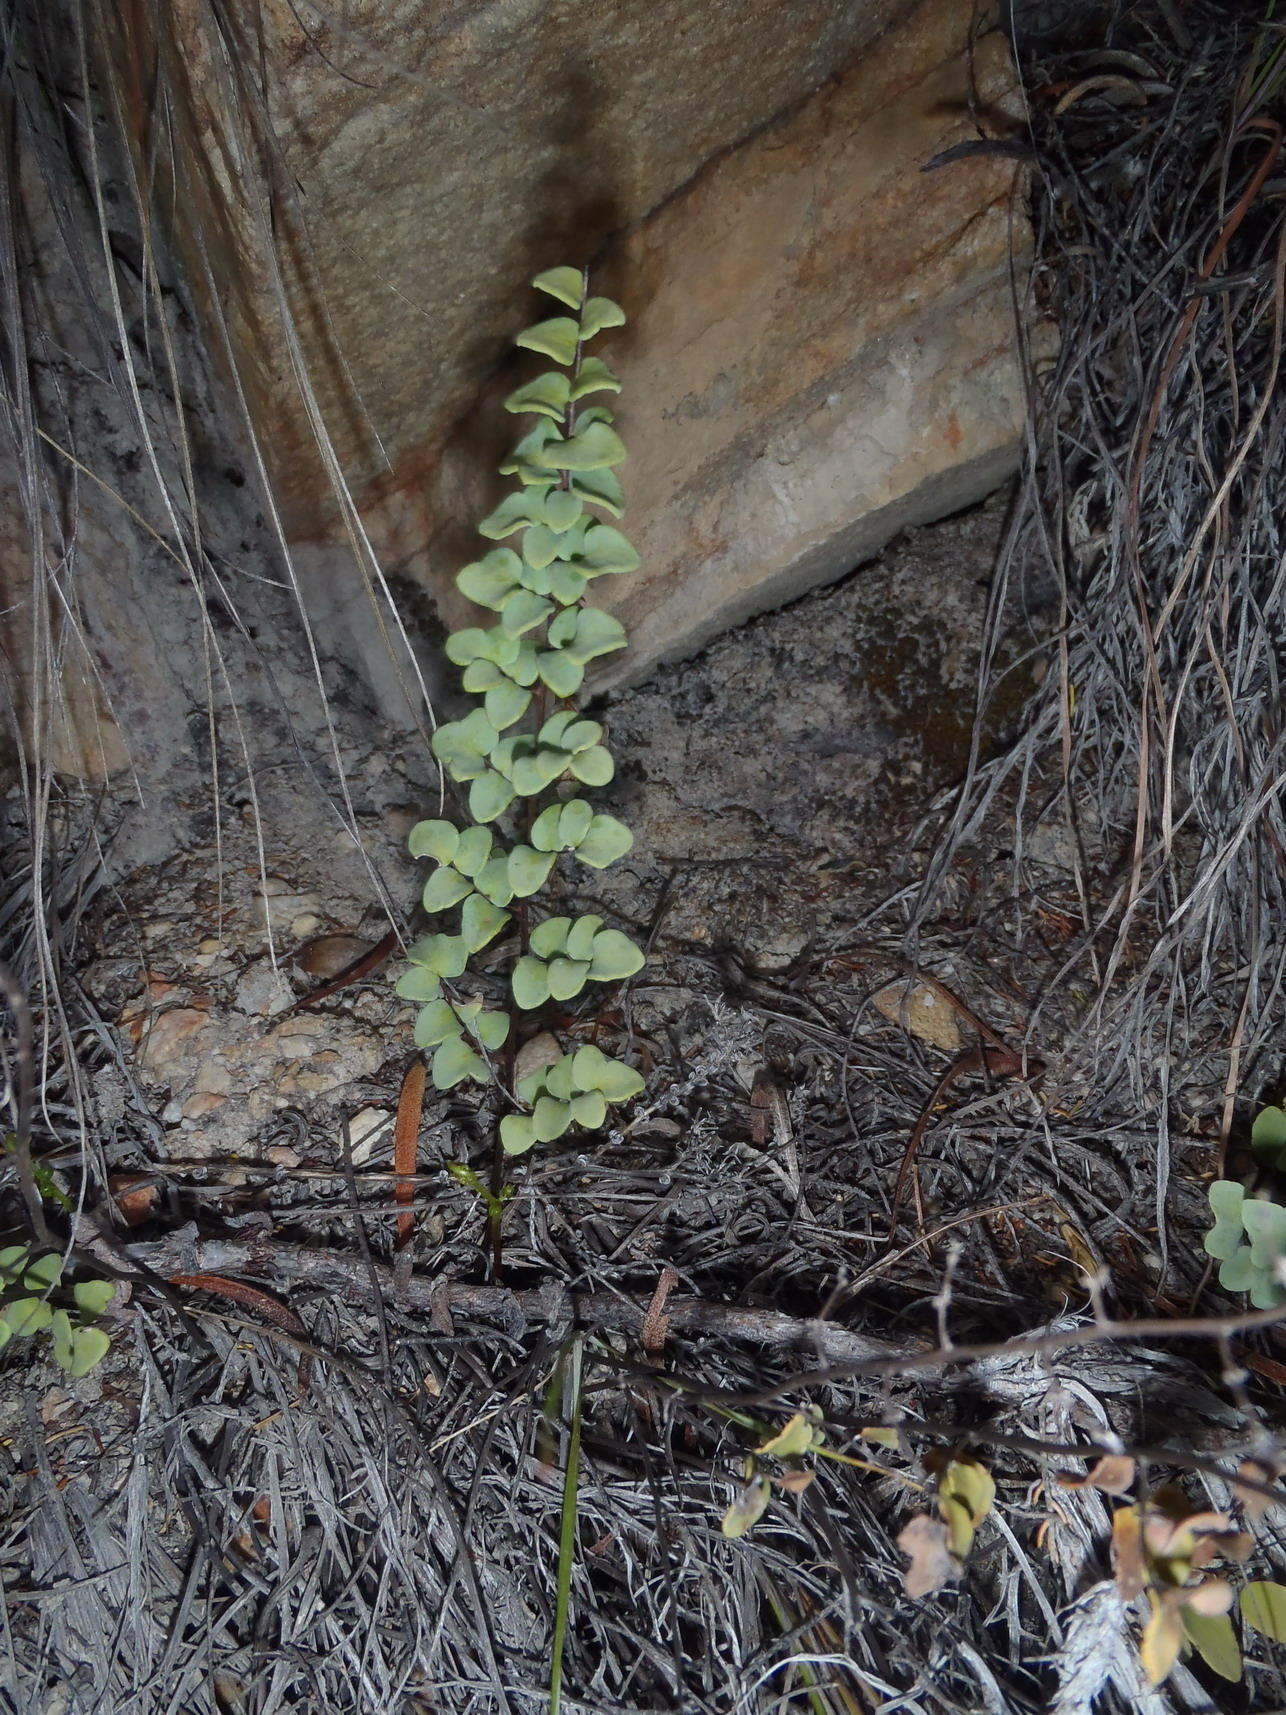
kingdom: Plantae
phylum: Tracheophyta
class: Polypodiopsida
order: Polypodiales
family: Pteridaceae
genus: Pellaea
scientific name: Pellaea leucomelas
